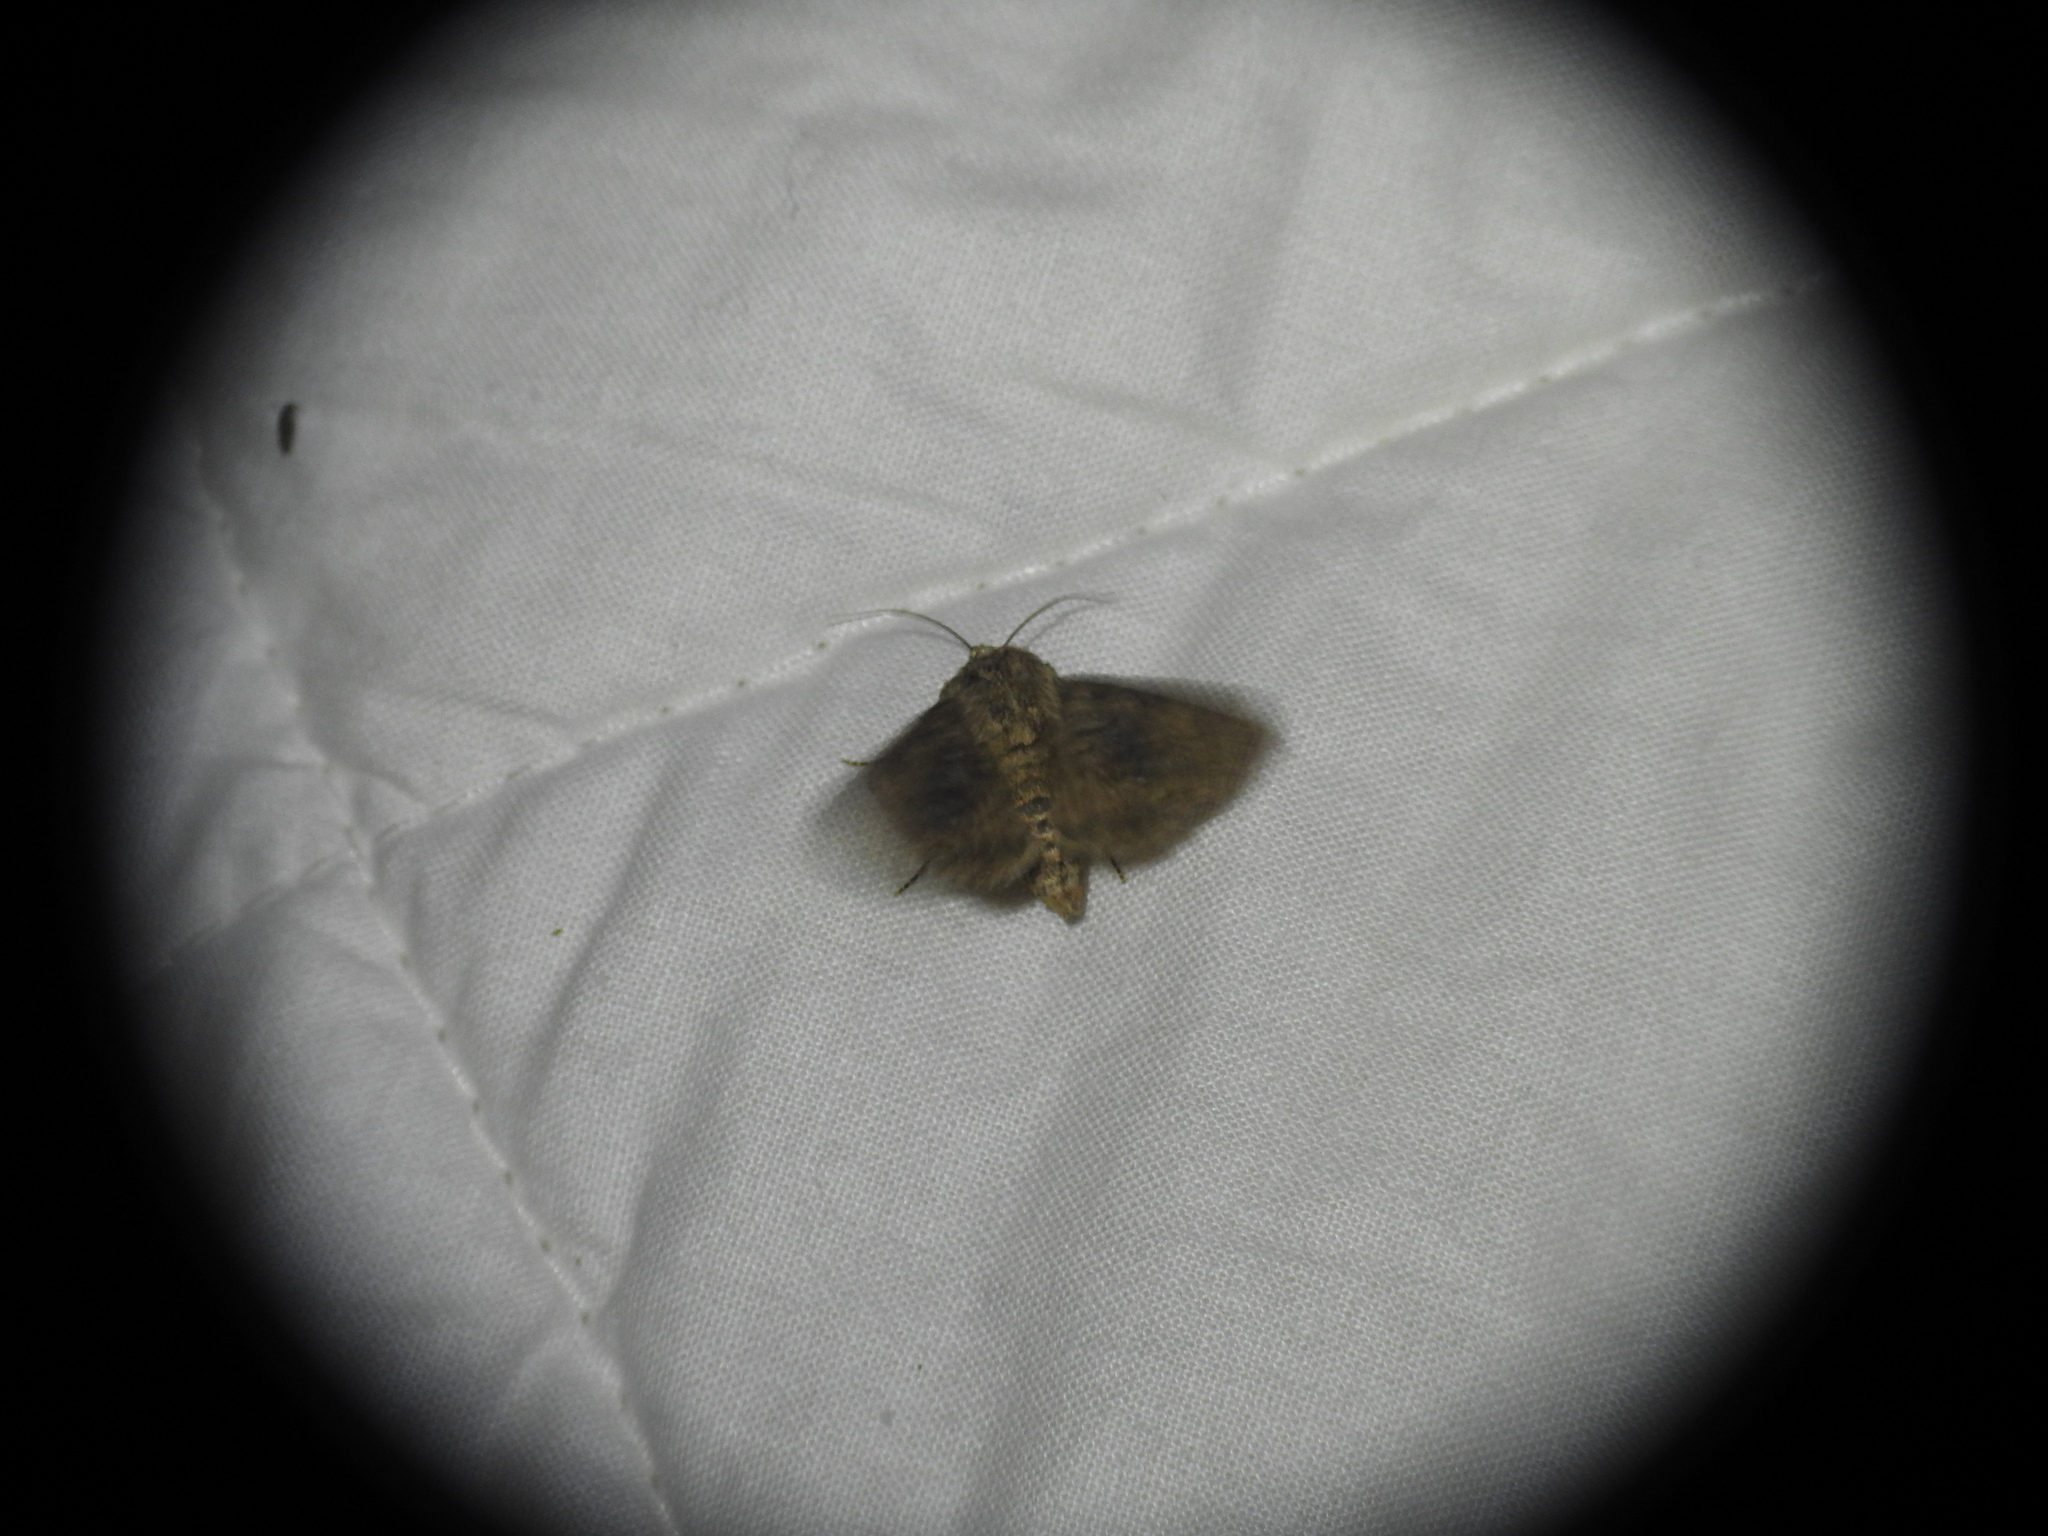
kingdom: Animalia
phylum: Arthropoda
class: Insecta
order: Lepidoptera
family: Noctuidae
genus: Recoropha
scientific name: Recoropha canteneri
